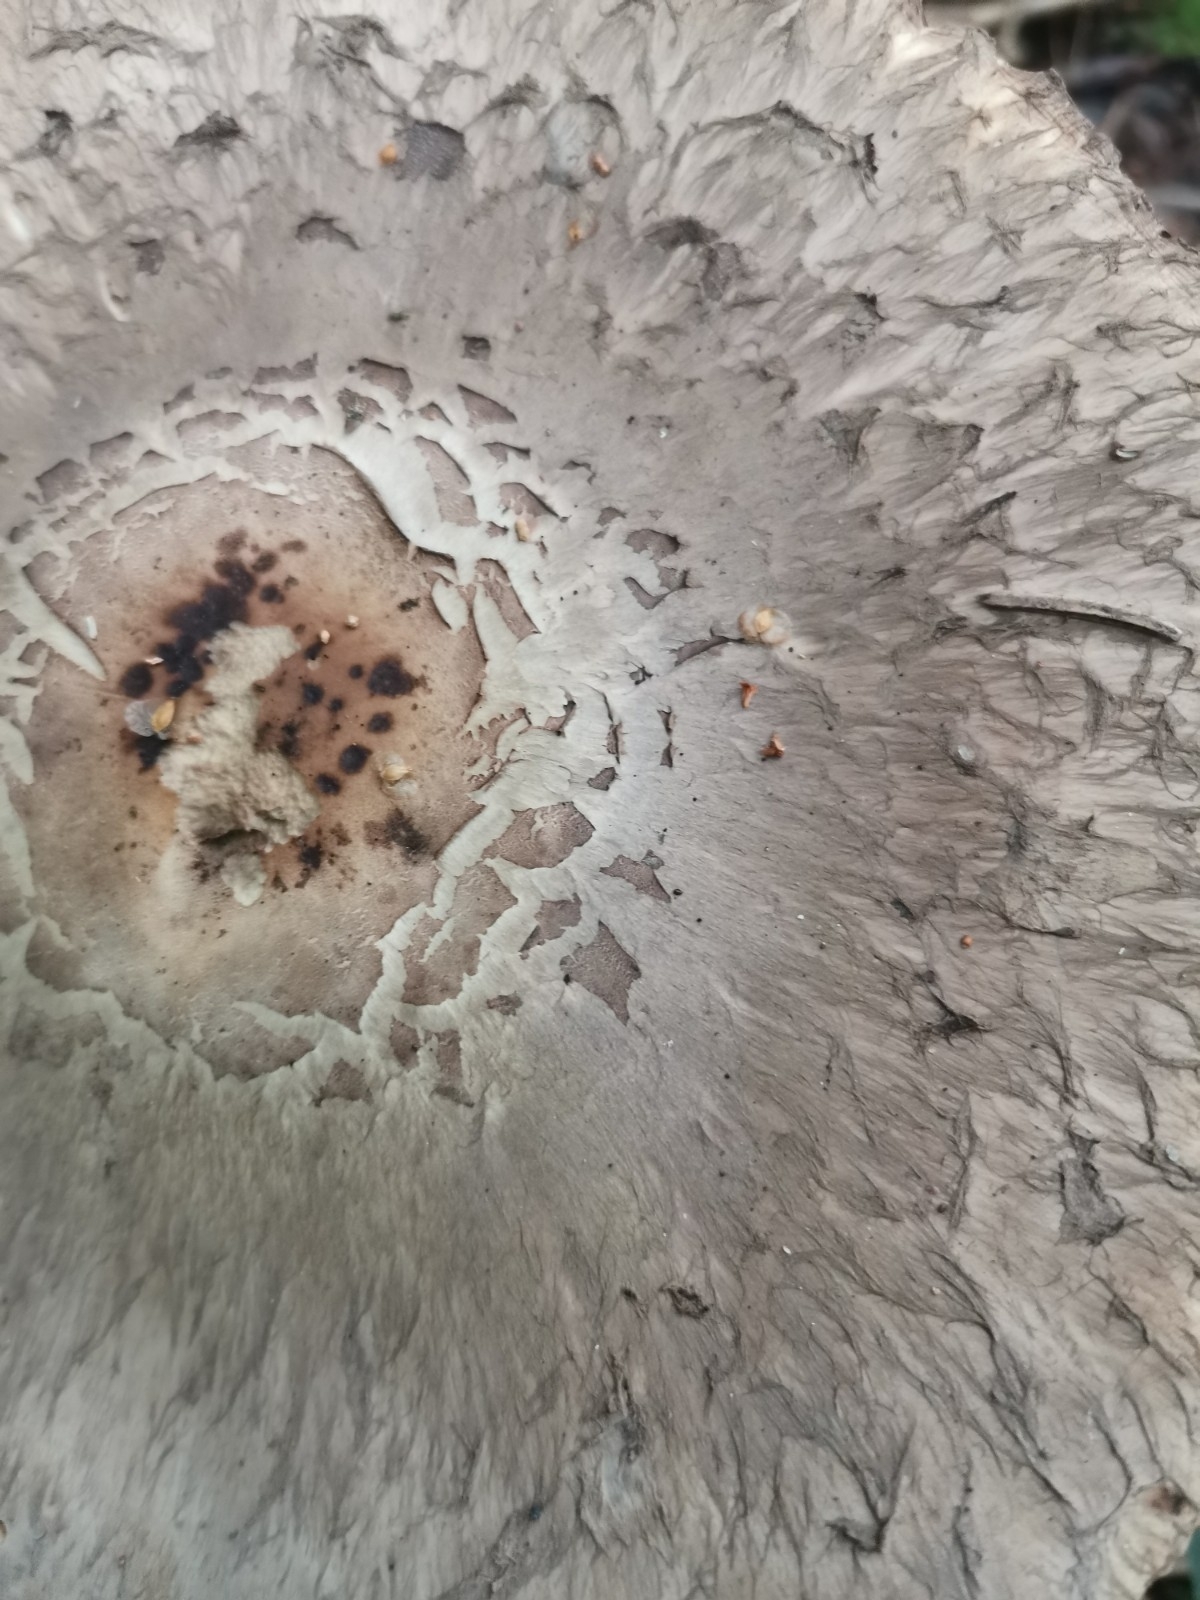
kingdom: Fungi
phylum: Basidiomycota
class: Agaricomycetes
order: Agaricales
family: Agaricaceae
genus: Chlorophyllum
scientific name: Chlorophyllum olivieri
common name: Conifer parasol
